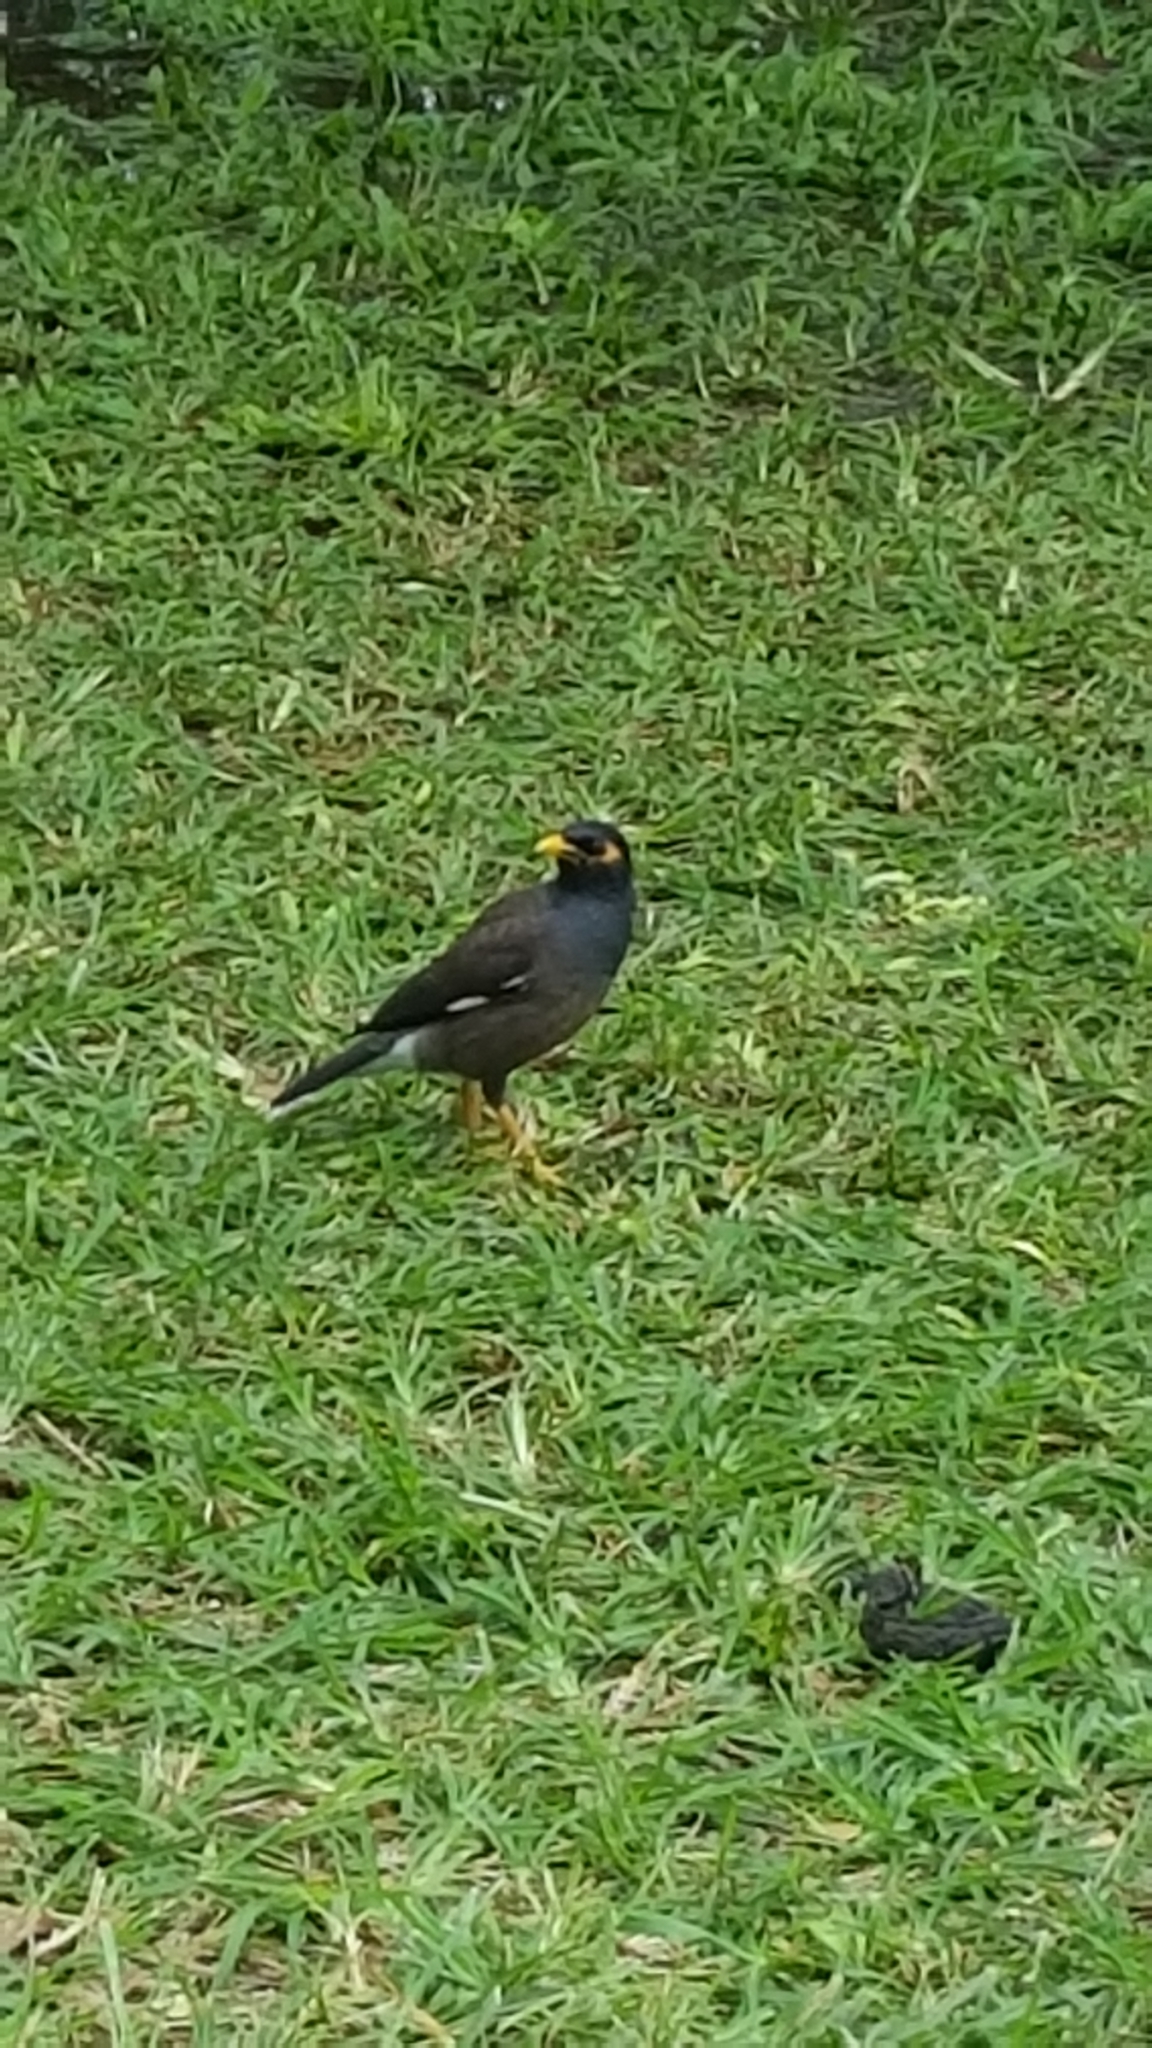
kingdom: Animalia
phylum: Chordata
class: Aves
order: Passeriformes
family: Sturnidae
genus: Acridotheres
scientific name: Acridotheres tristis
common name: Common myna
